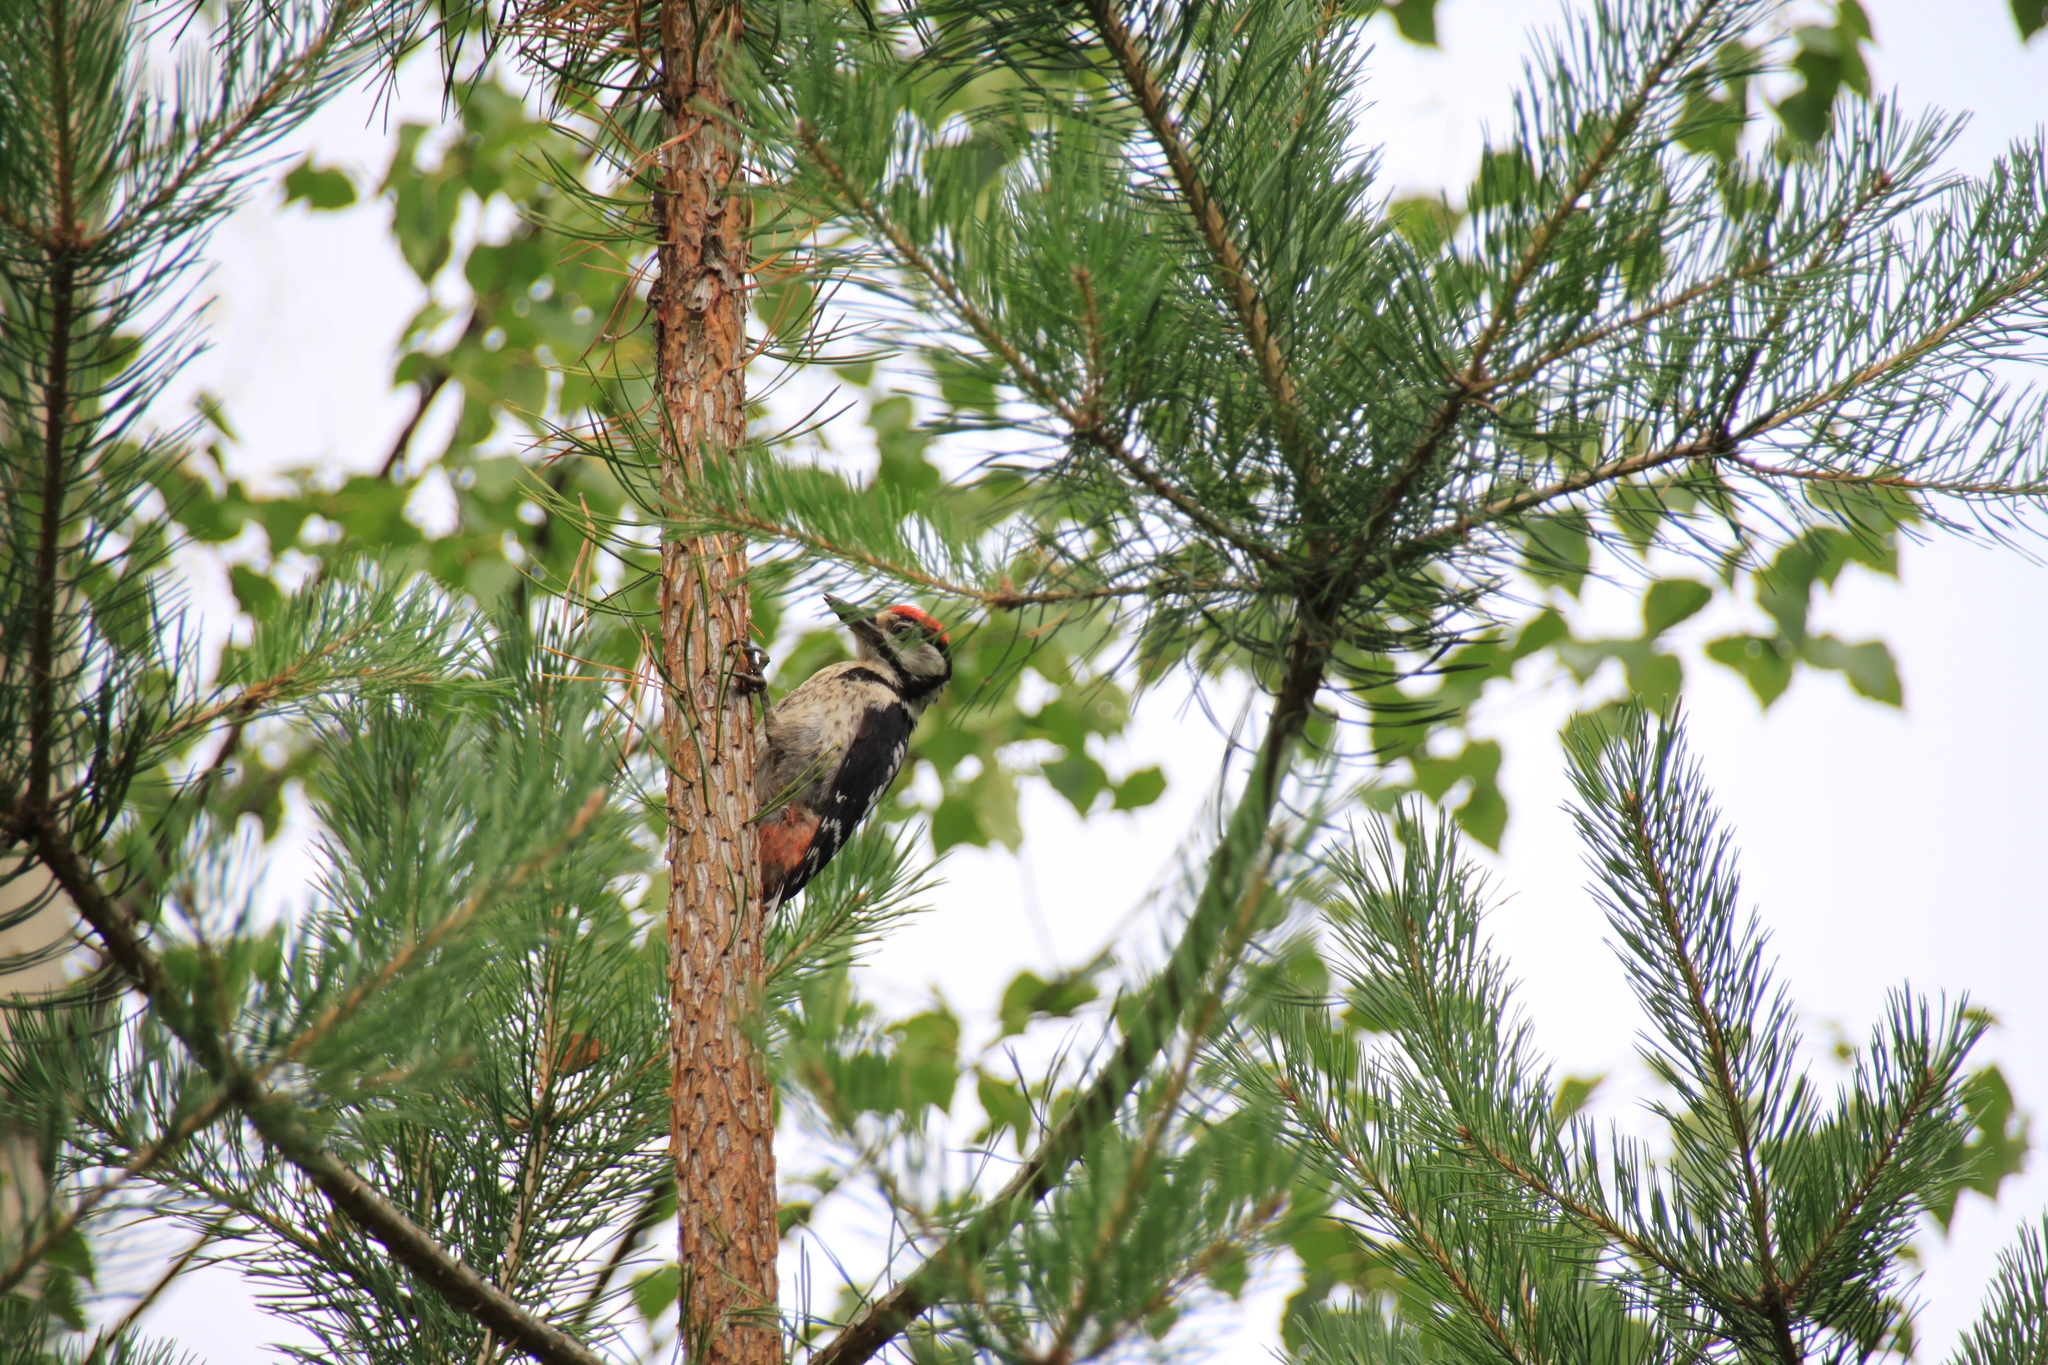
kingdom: Animalia
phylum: Chordata
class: Aves
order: Piciformes
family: Picidae
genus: Dendrocopos
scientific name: Dendrocopos major
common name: Great spotted woodpecker
